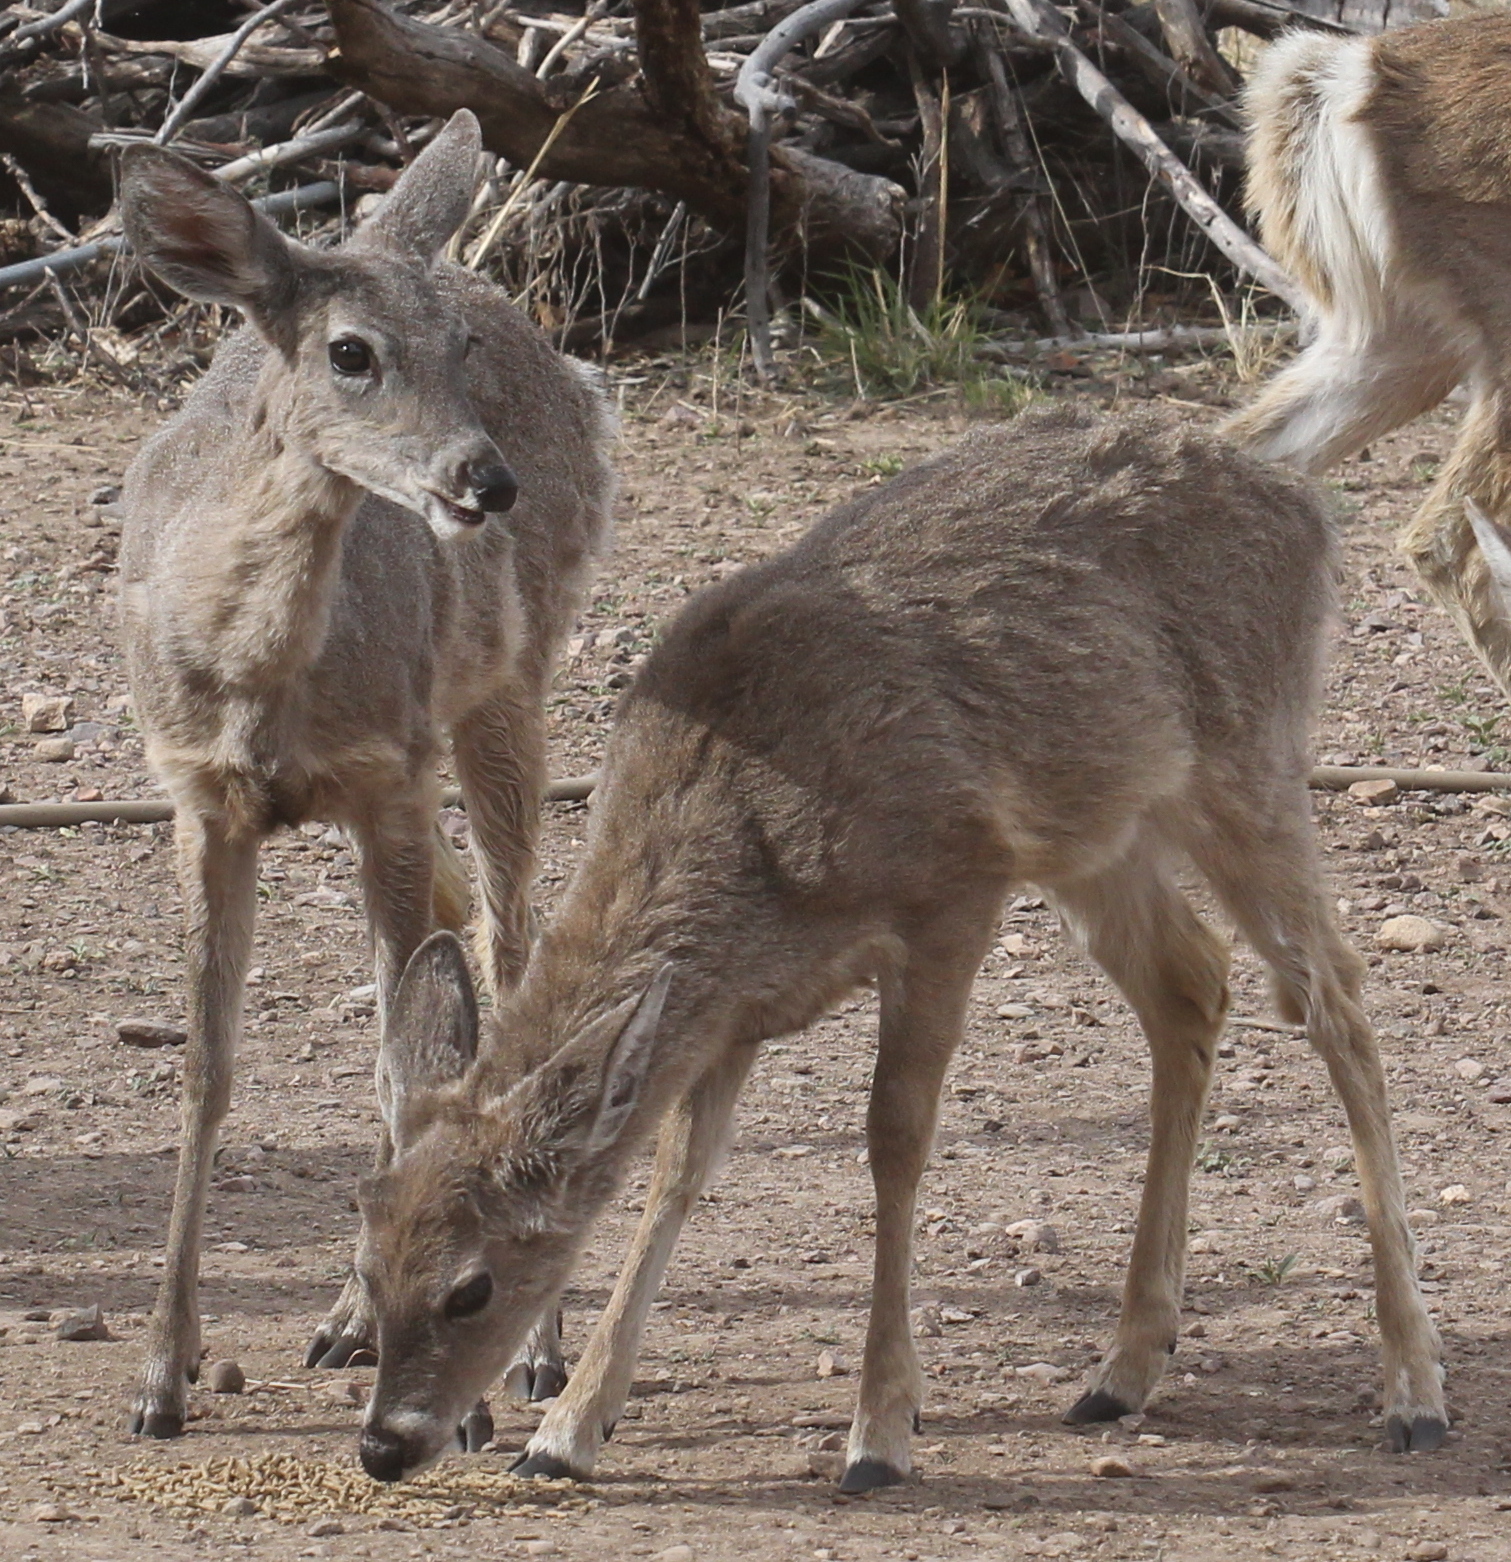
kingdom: Animalia
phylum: Chordata
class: Mammalia
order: Artiodactyla
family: Cervidae
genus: Odocoileus
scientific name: Odocoileus virginianus
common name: White-tailed deer
